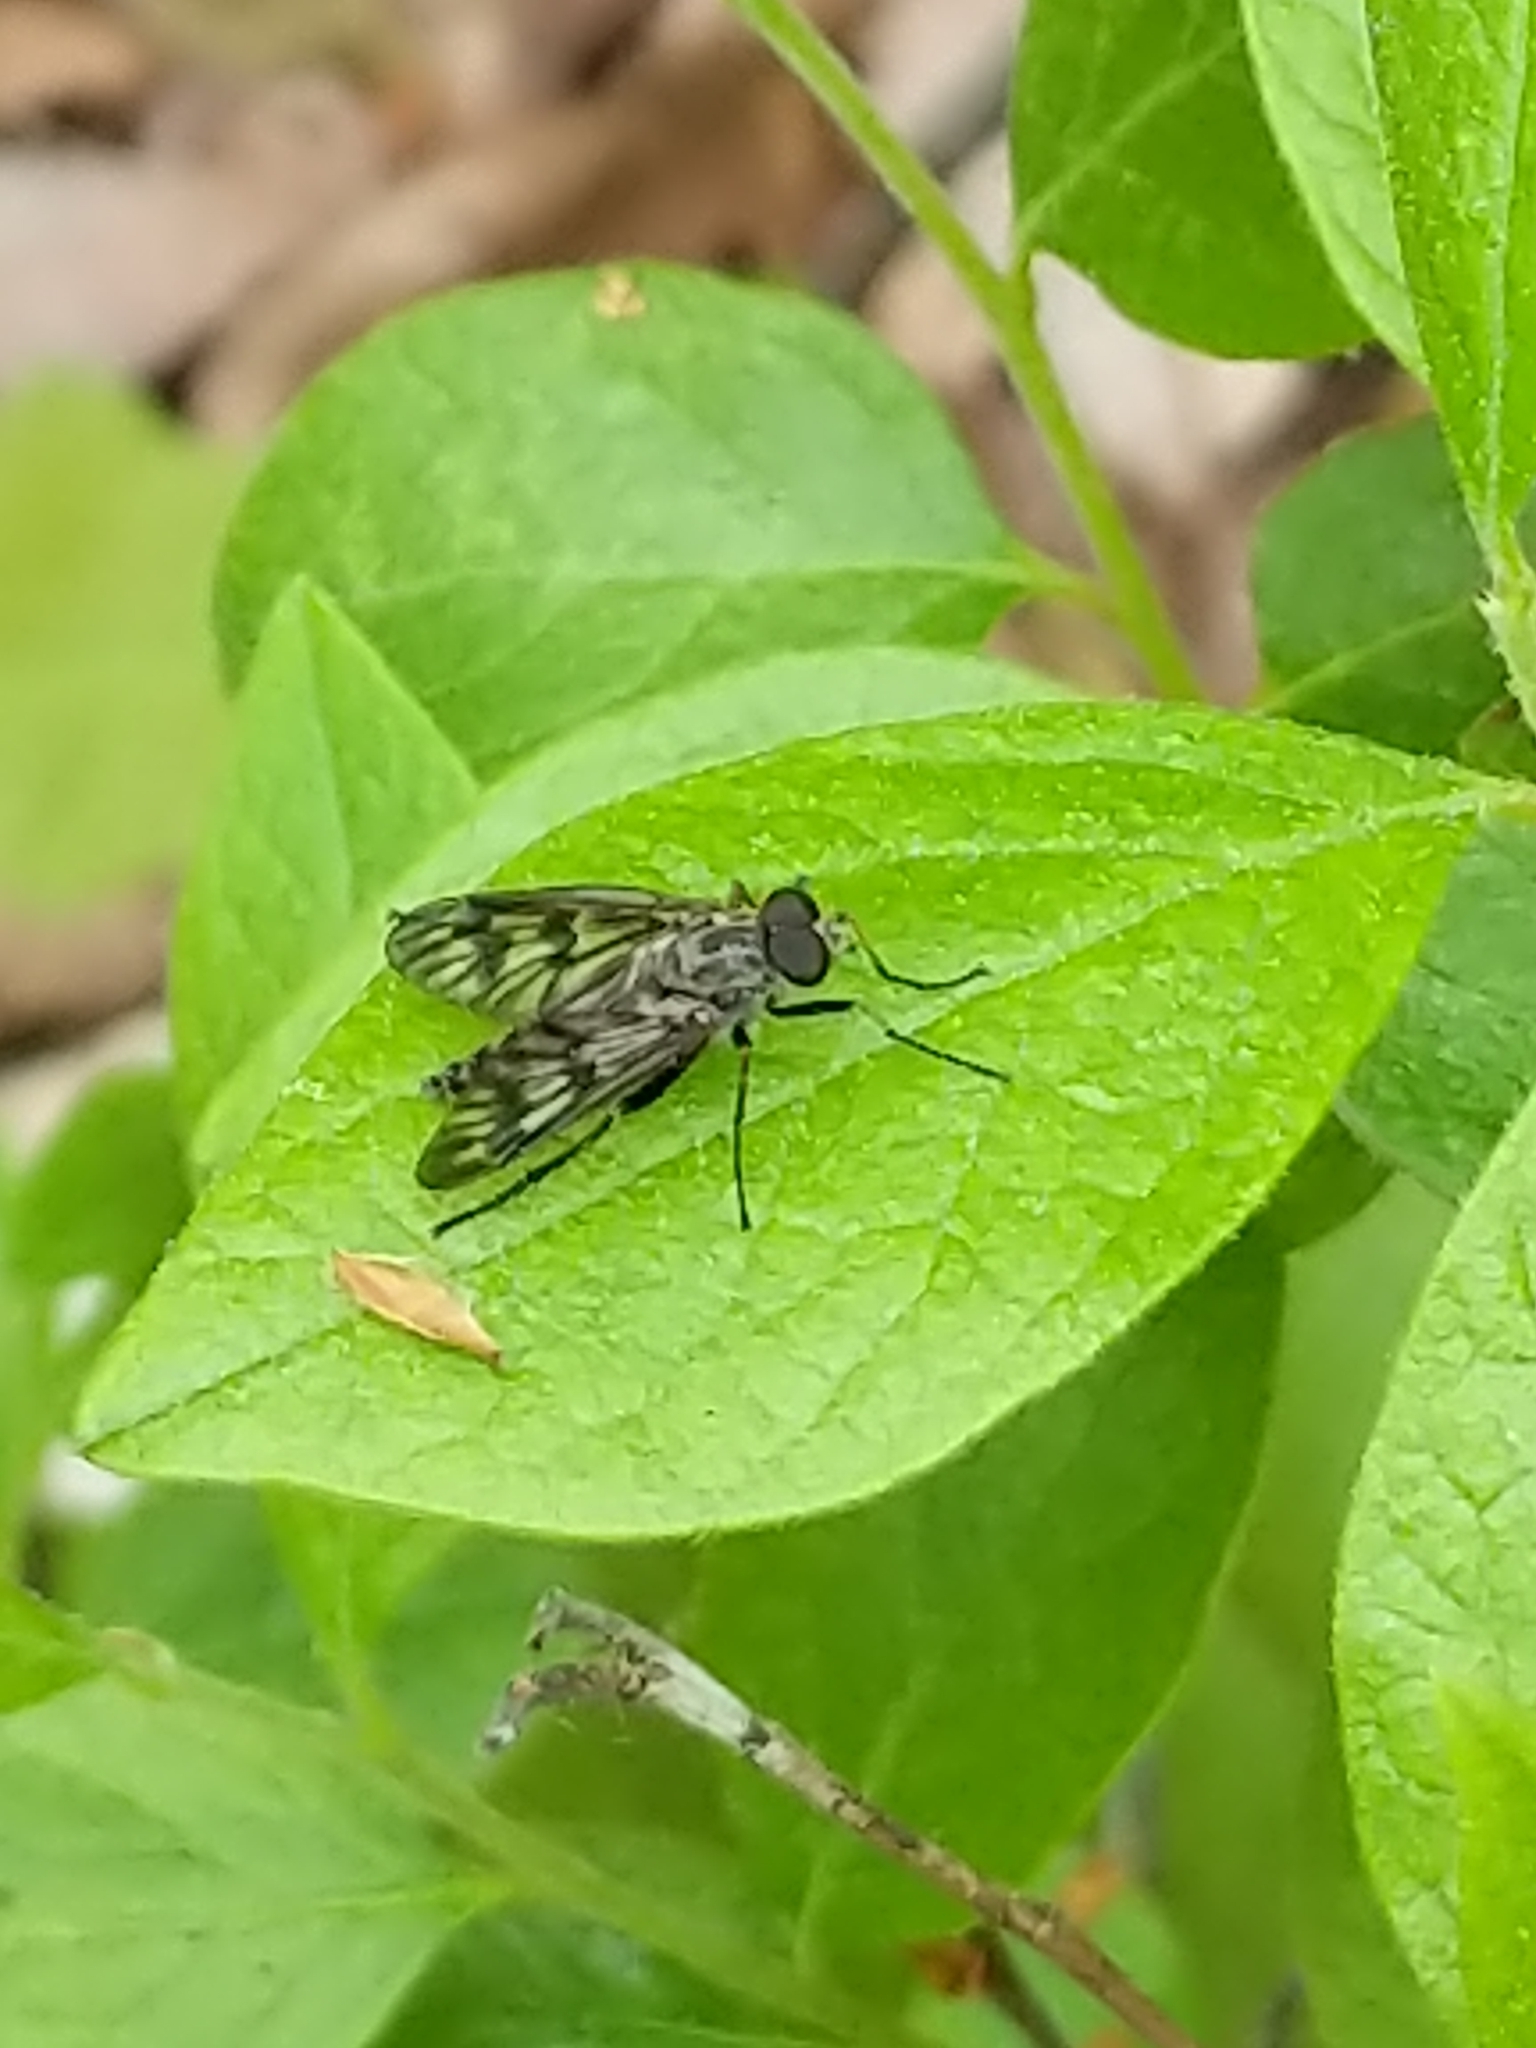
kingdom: Animalia
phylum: Arthropoda
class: Insecta
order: Diptera
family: Rhagionidae
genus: Rhagio
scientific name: Rhagio mystaceus
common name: Common snipe fly
